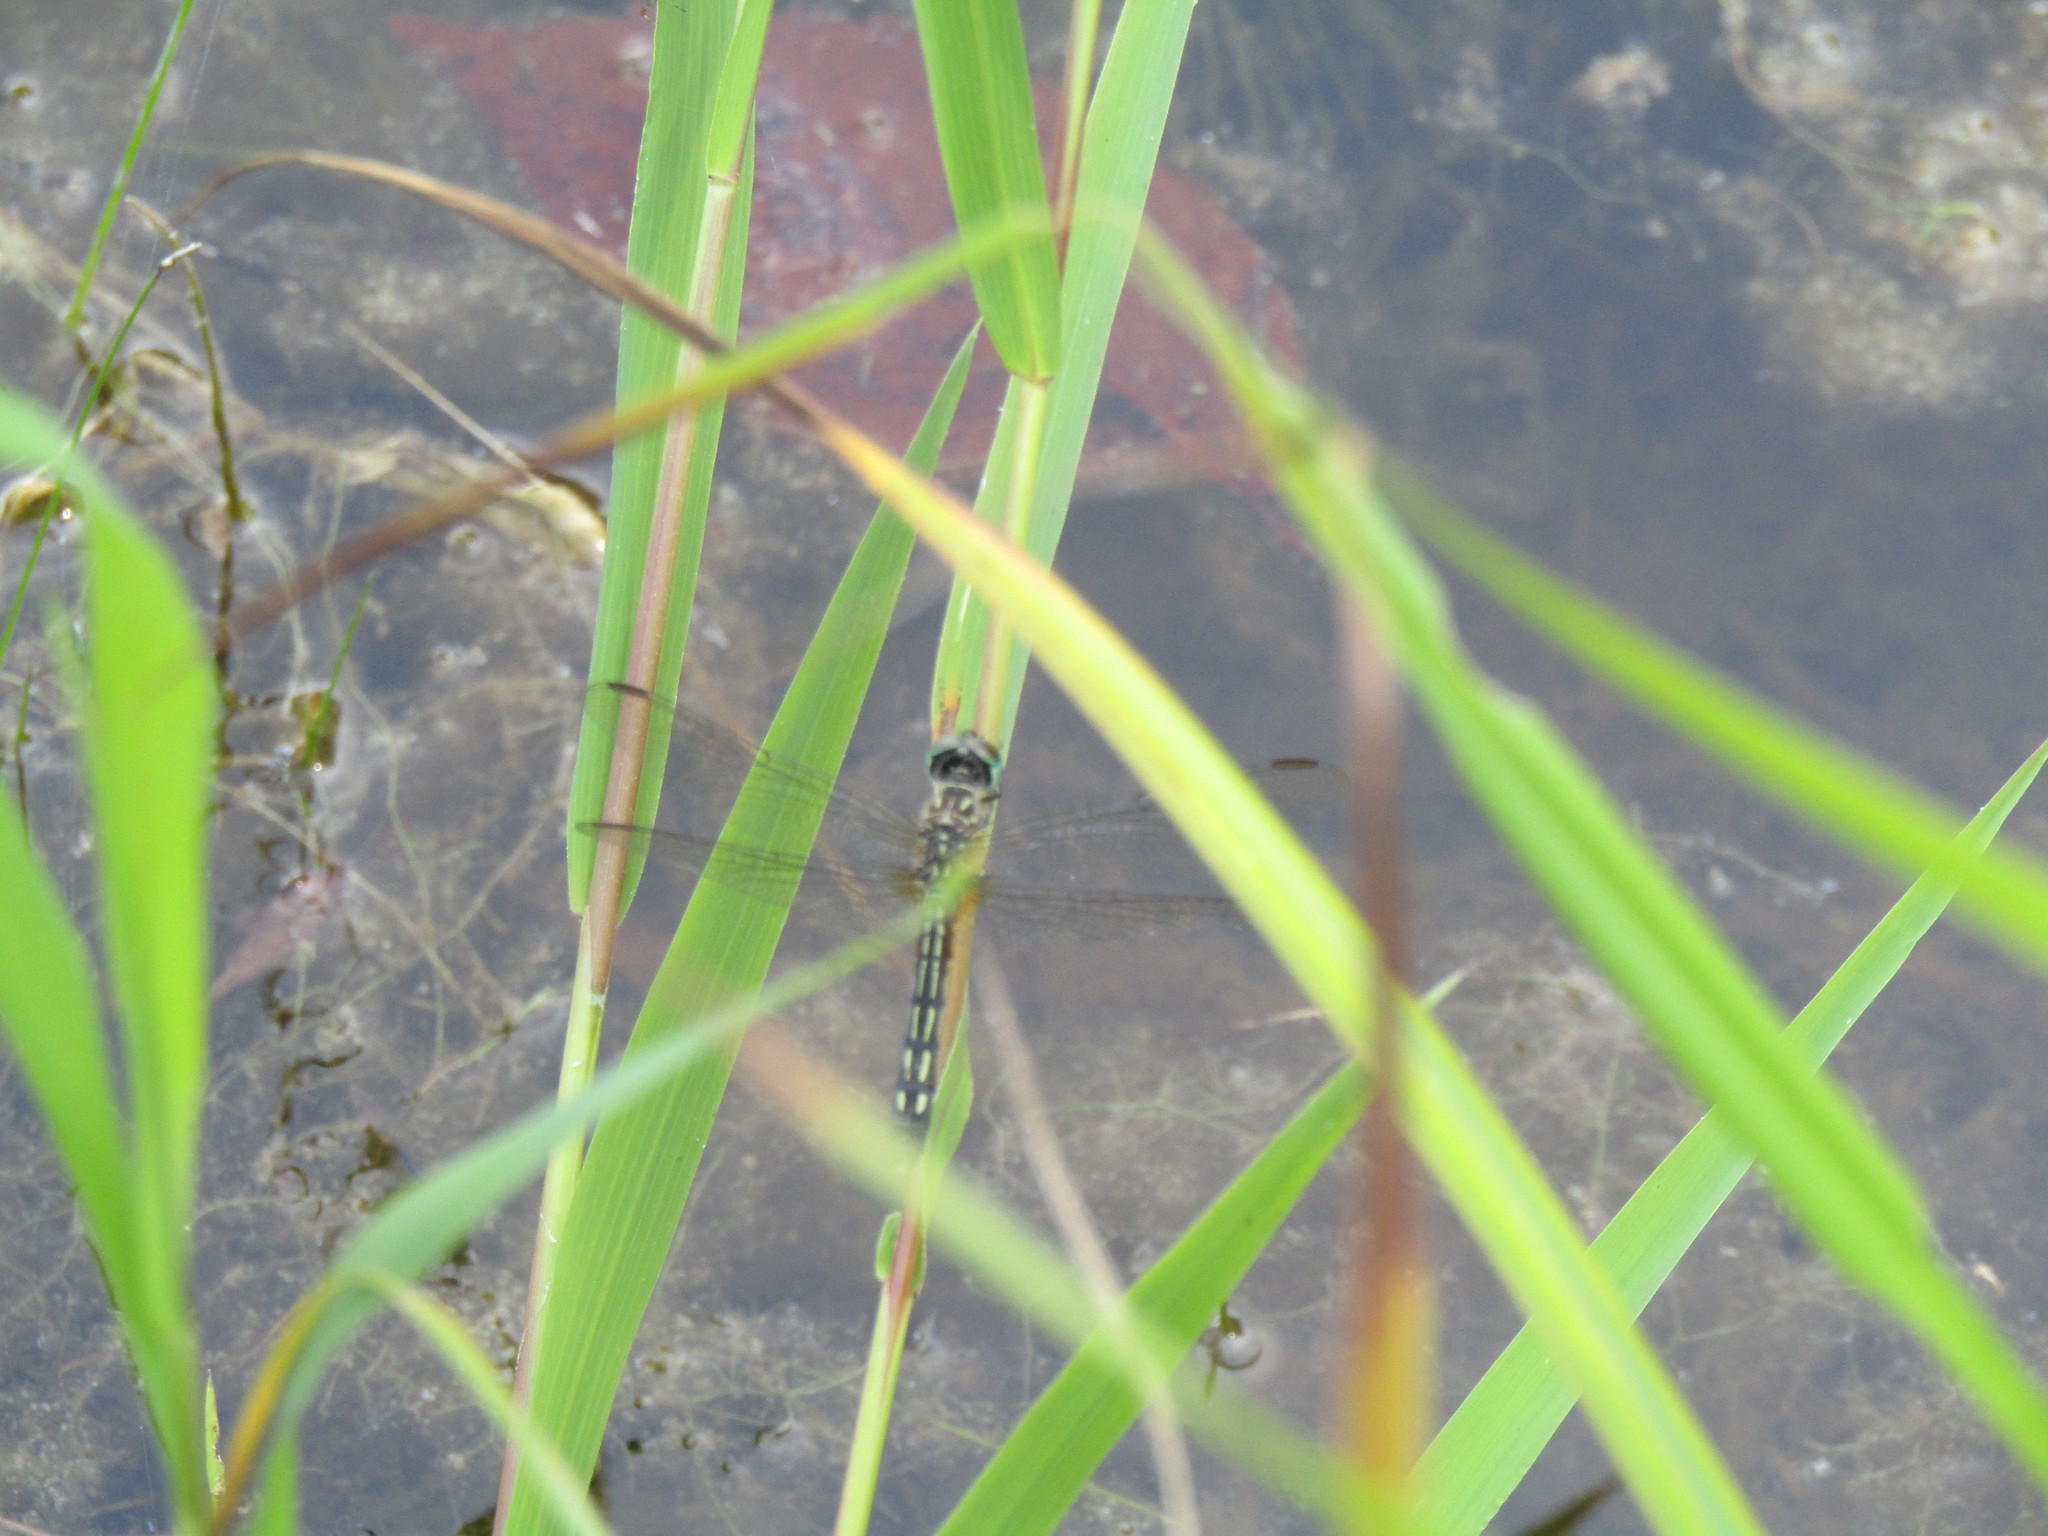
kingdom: Animalia
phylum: Arthropoda
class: Insecta
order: Odonata
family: Libellulidae
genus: Pachydiplax
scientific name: Pachydiplax longipennis
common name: Blue dasher
